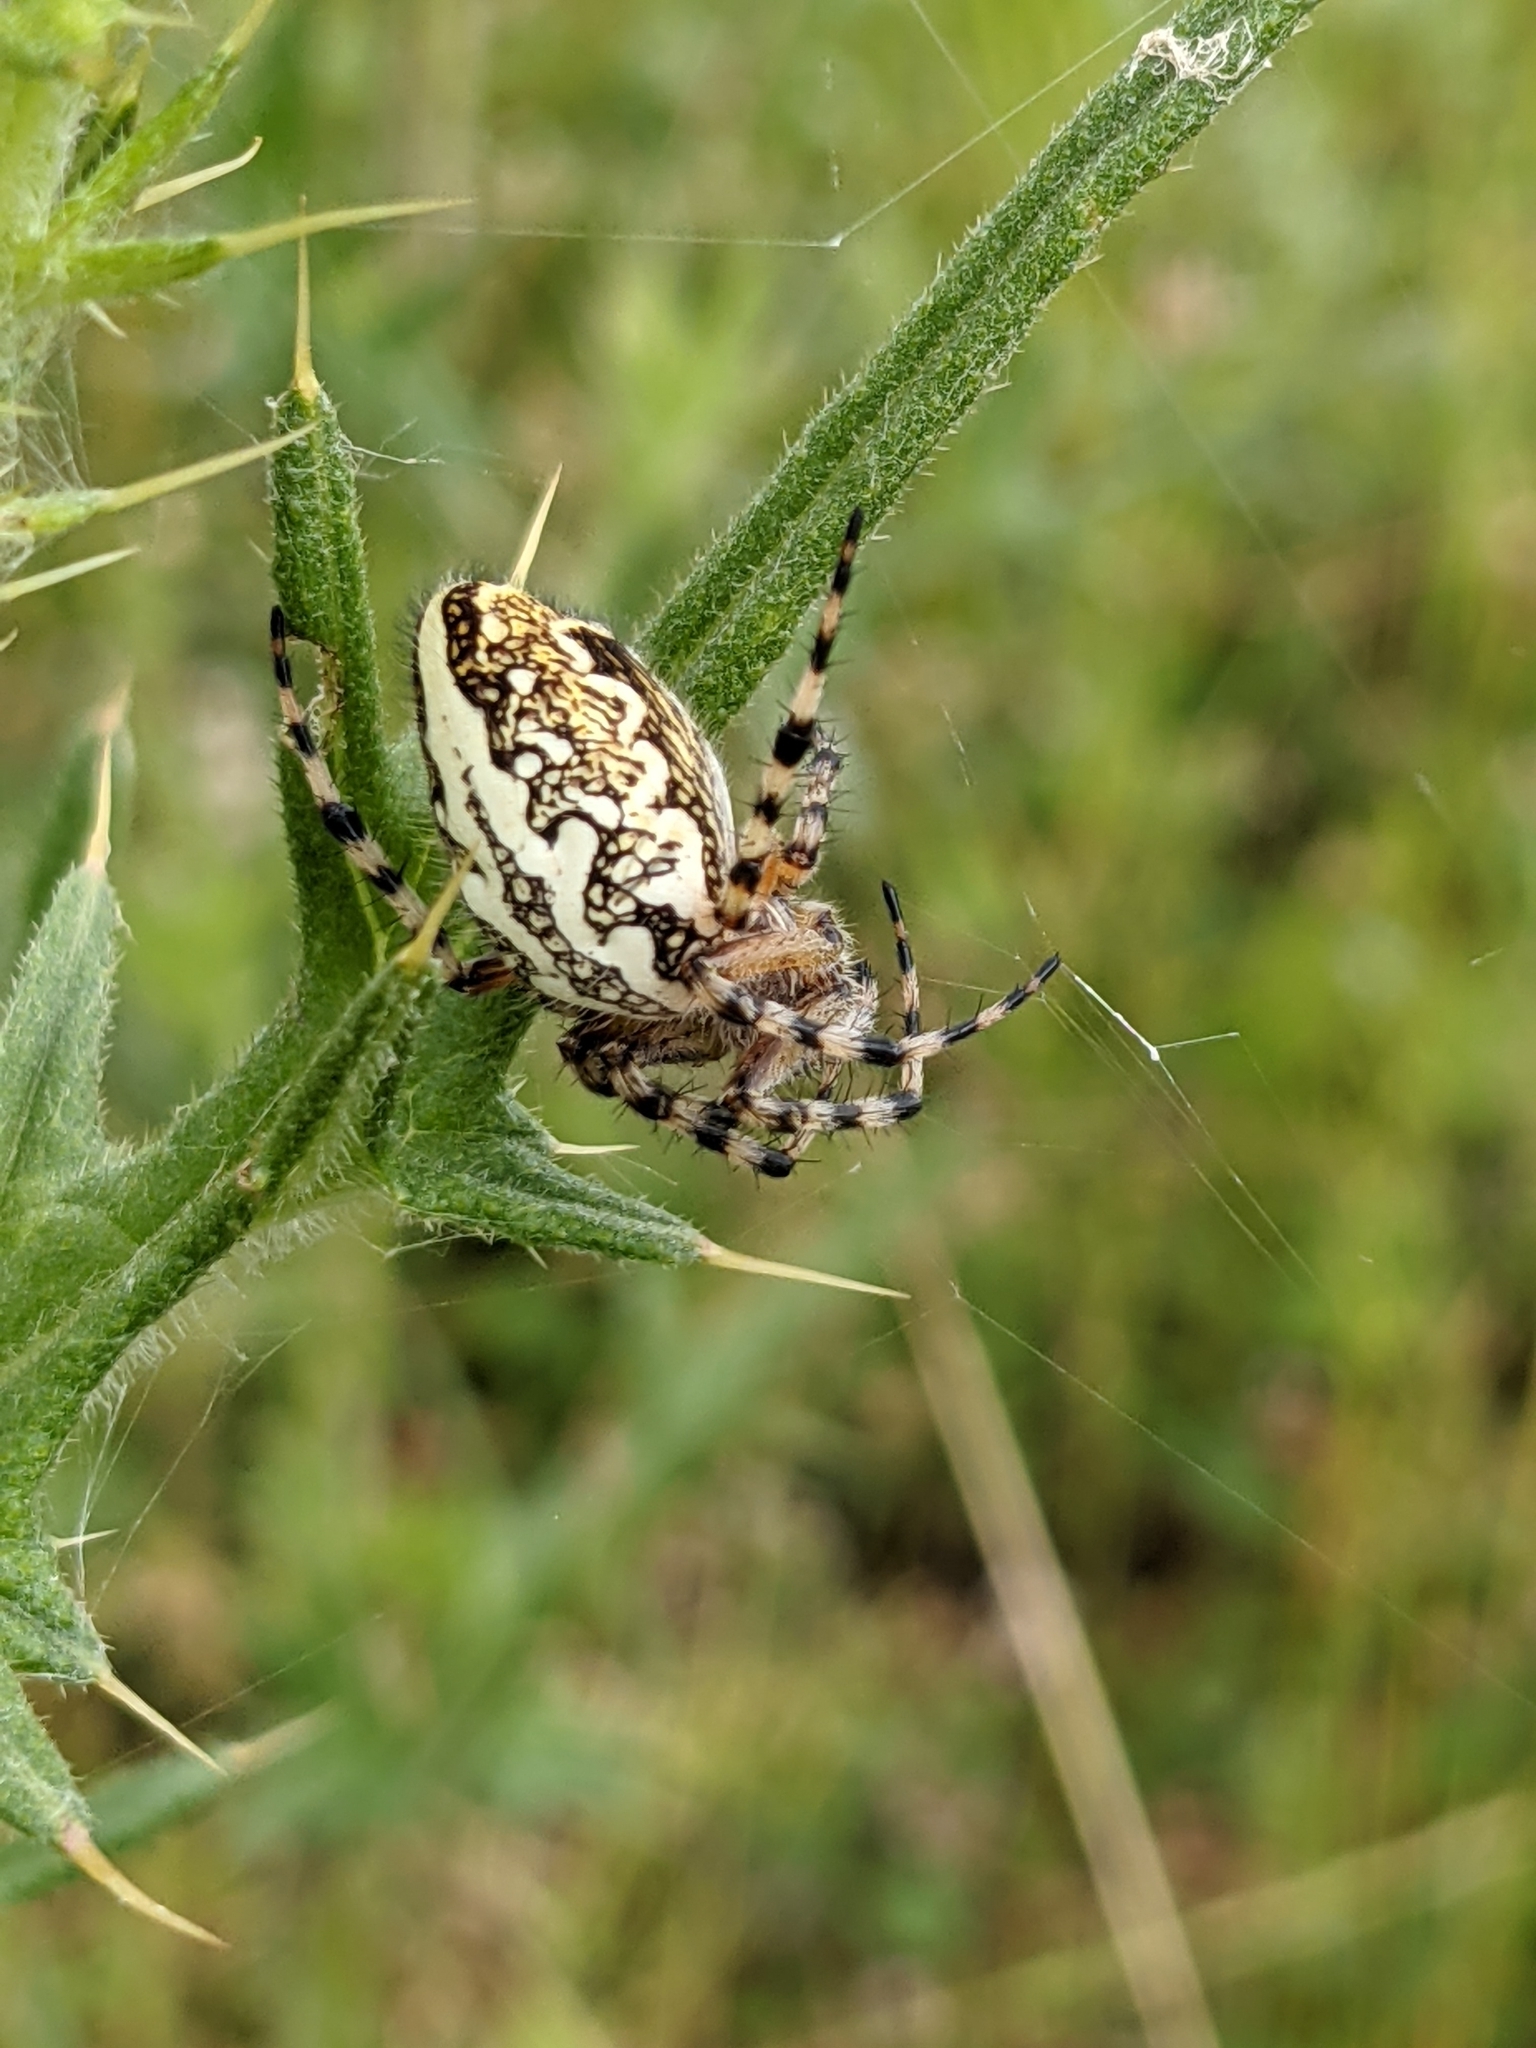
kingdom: Animalia
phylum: Arthropoda
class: Arachnida
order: Araneae
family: Araneidae
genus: Aculepeira
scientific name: Aculepeira ceropegia
